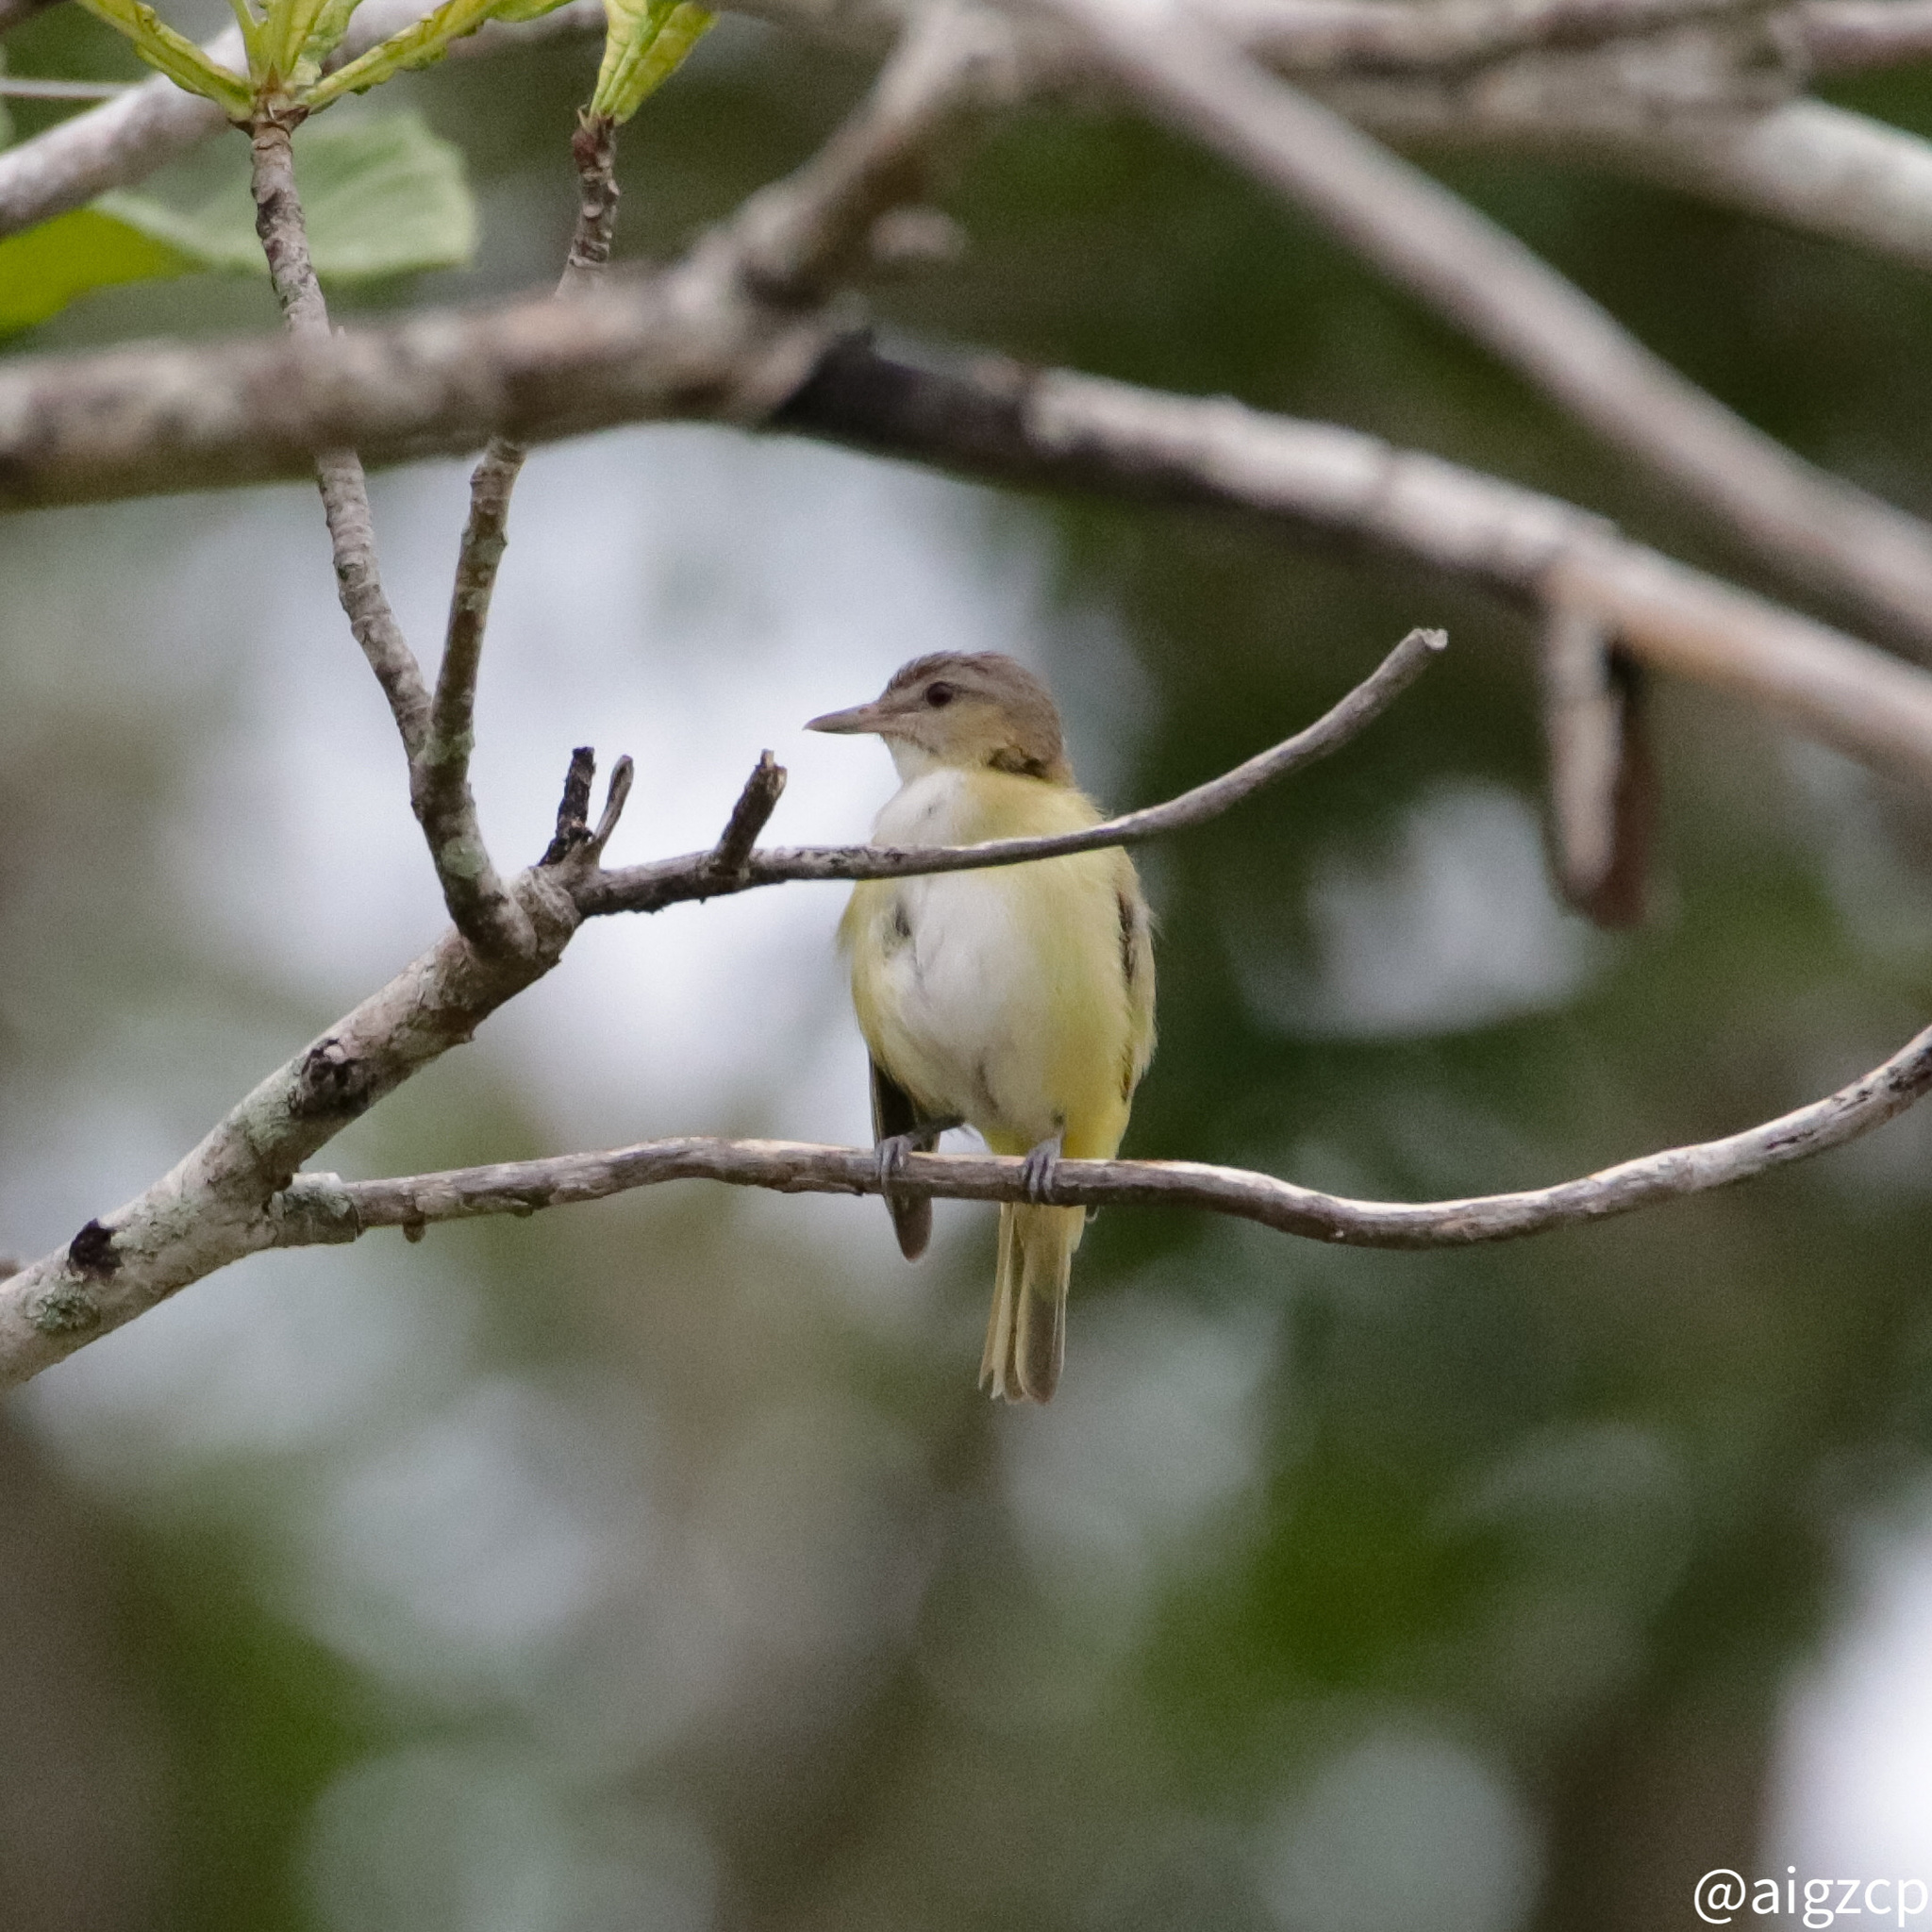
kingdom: Animalia
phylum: Chordata
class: Aves
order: Passeriformes
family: Vireonidae
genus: Vireo
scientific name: Vireo flavoviridis
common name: Yellow-green vireo
